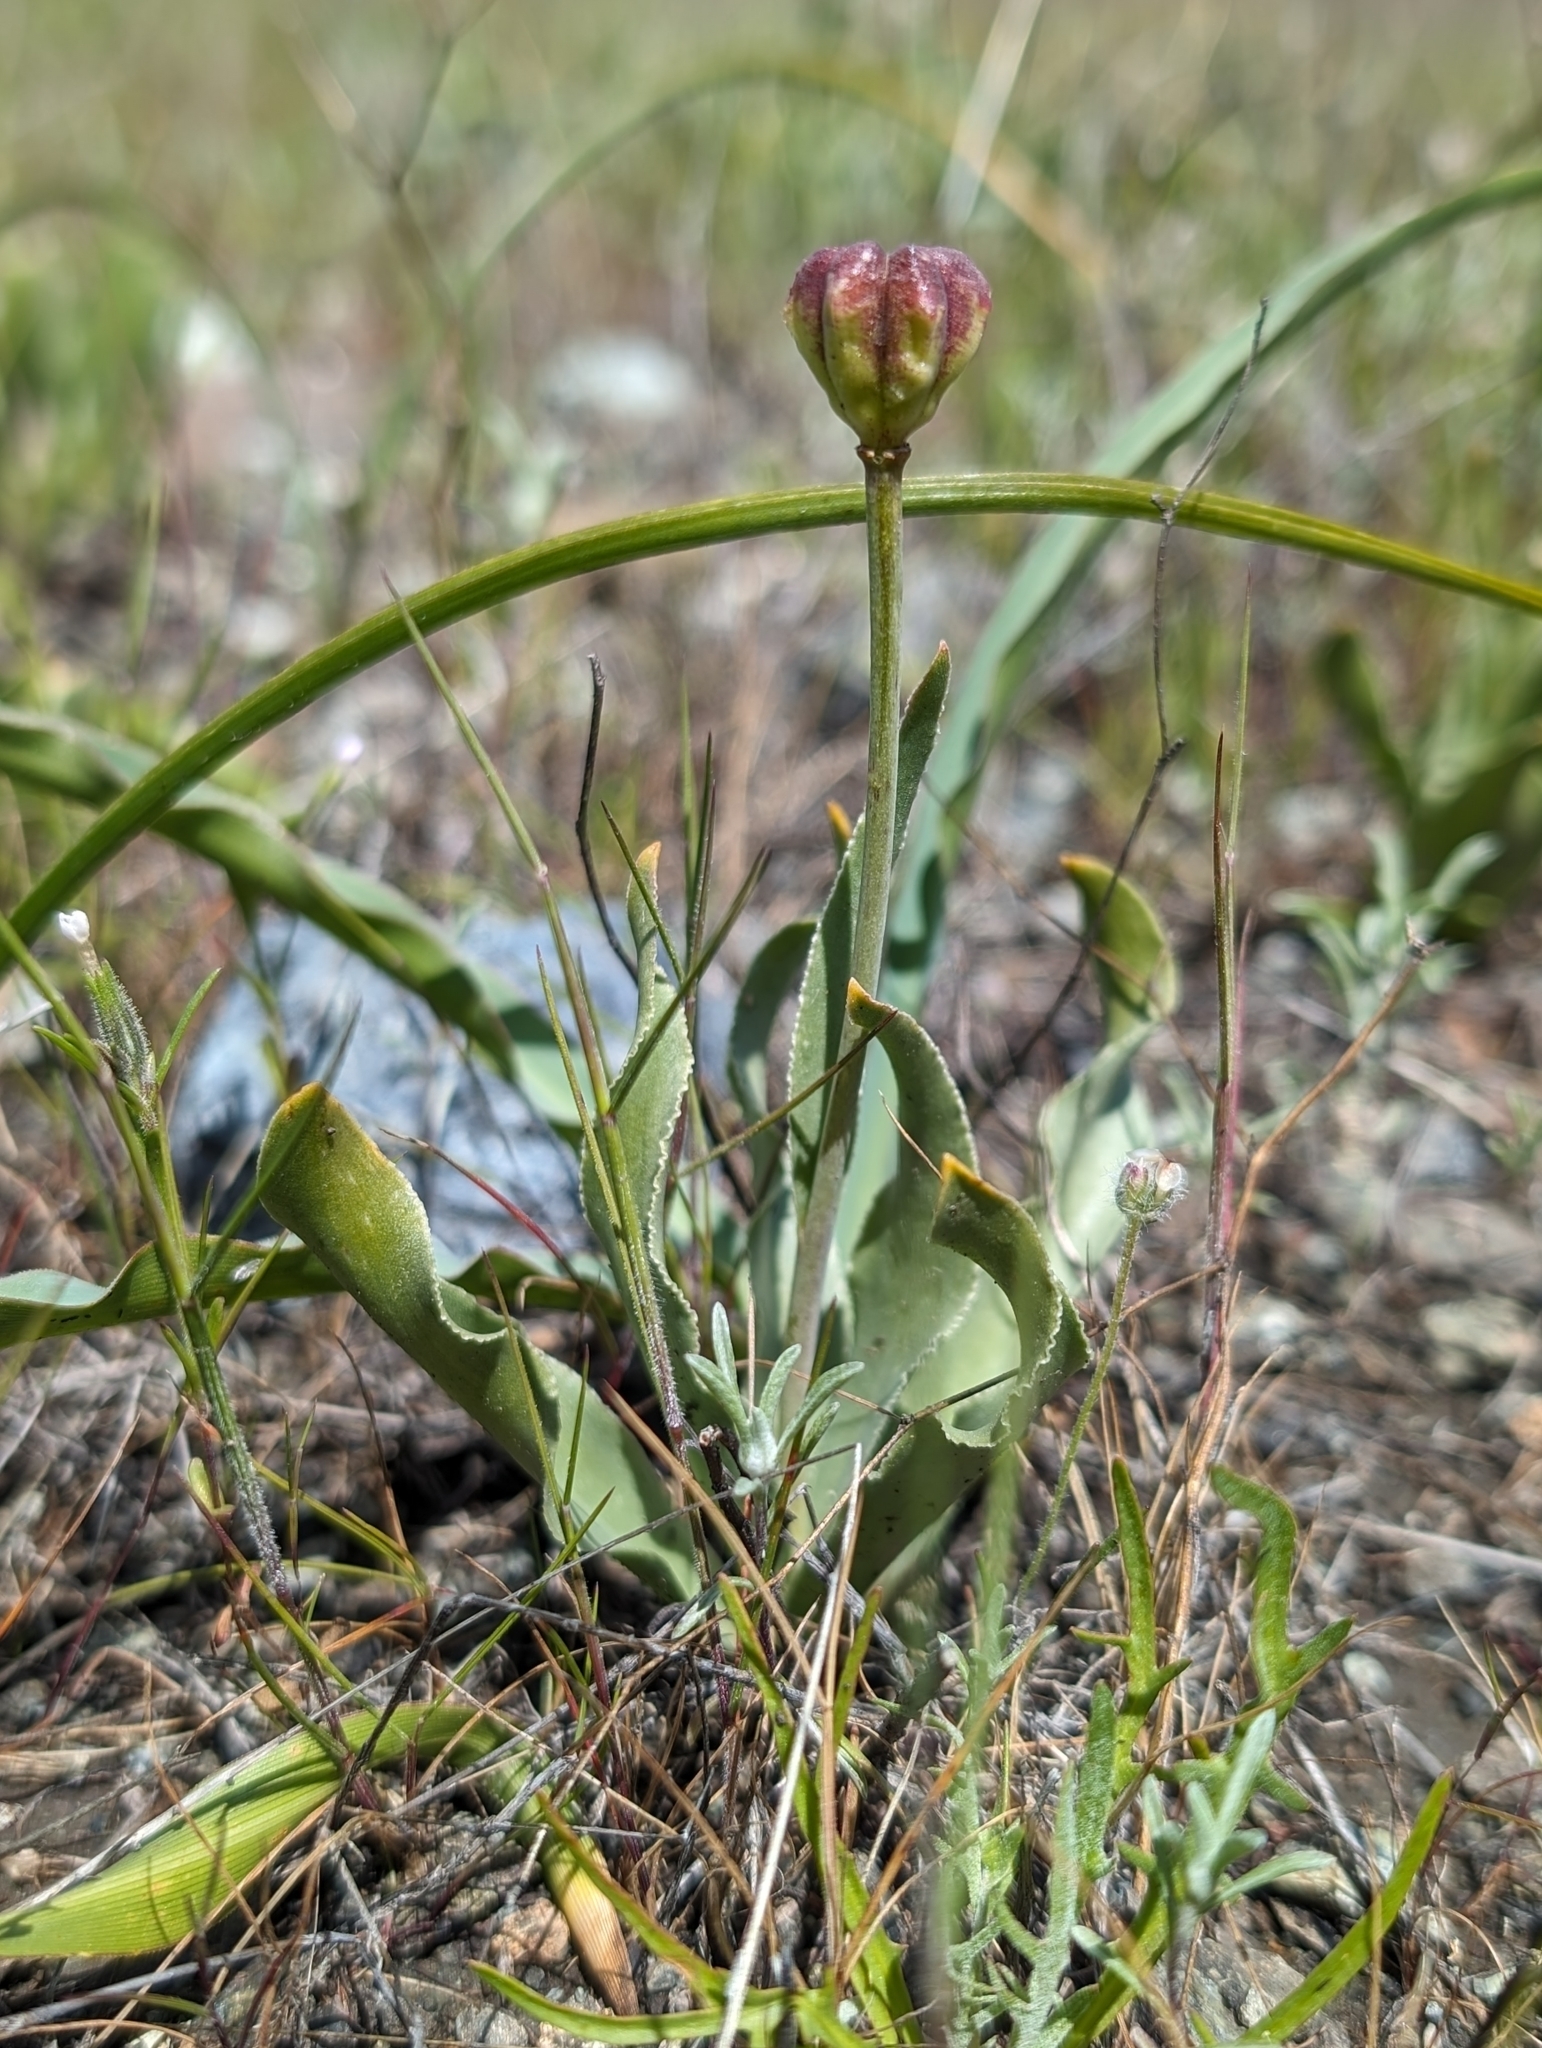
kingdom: Plantae
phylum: Tracheophyta
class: Liliopsida
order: Liliales
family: Liliaceae
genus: Fritillaria
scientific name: Fritillaria pluriflora
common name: Adobe-lily
